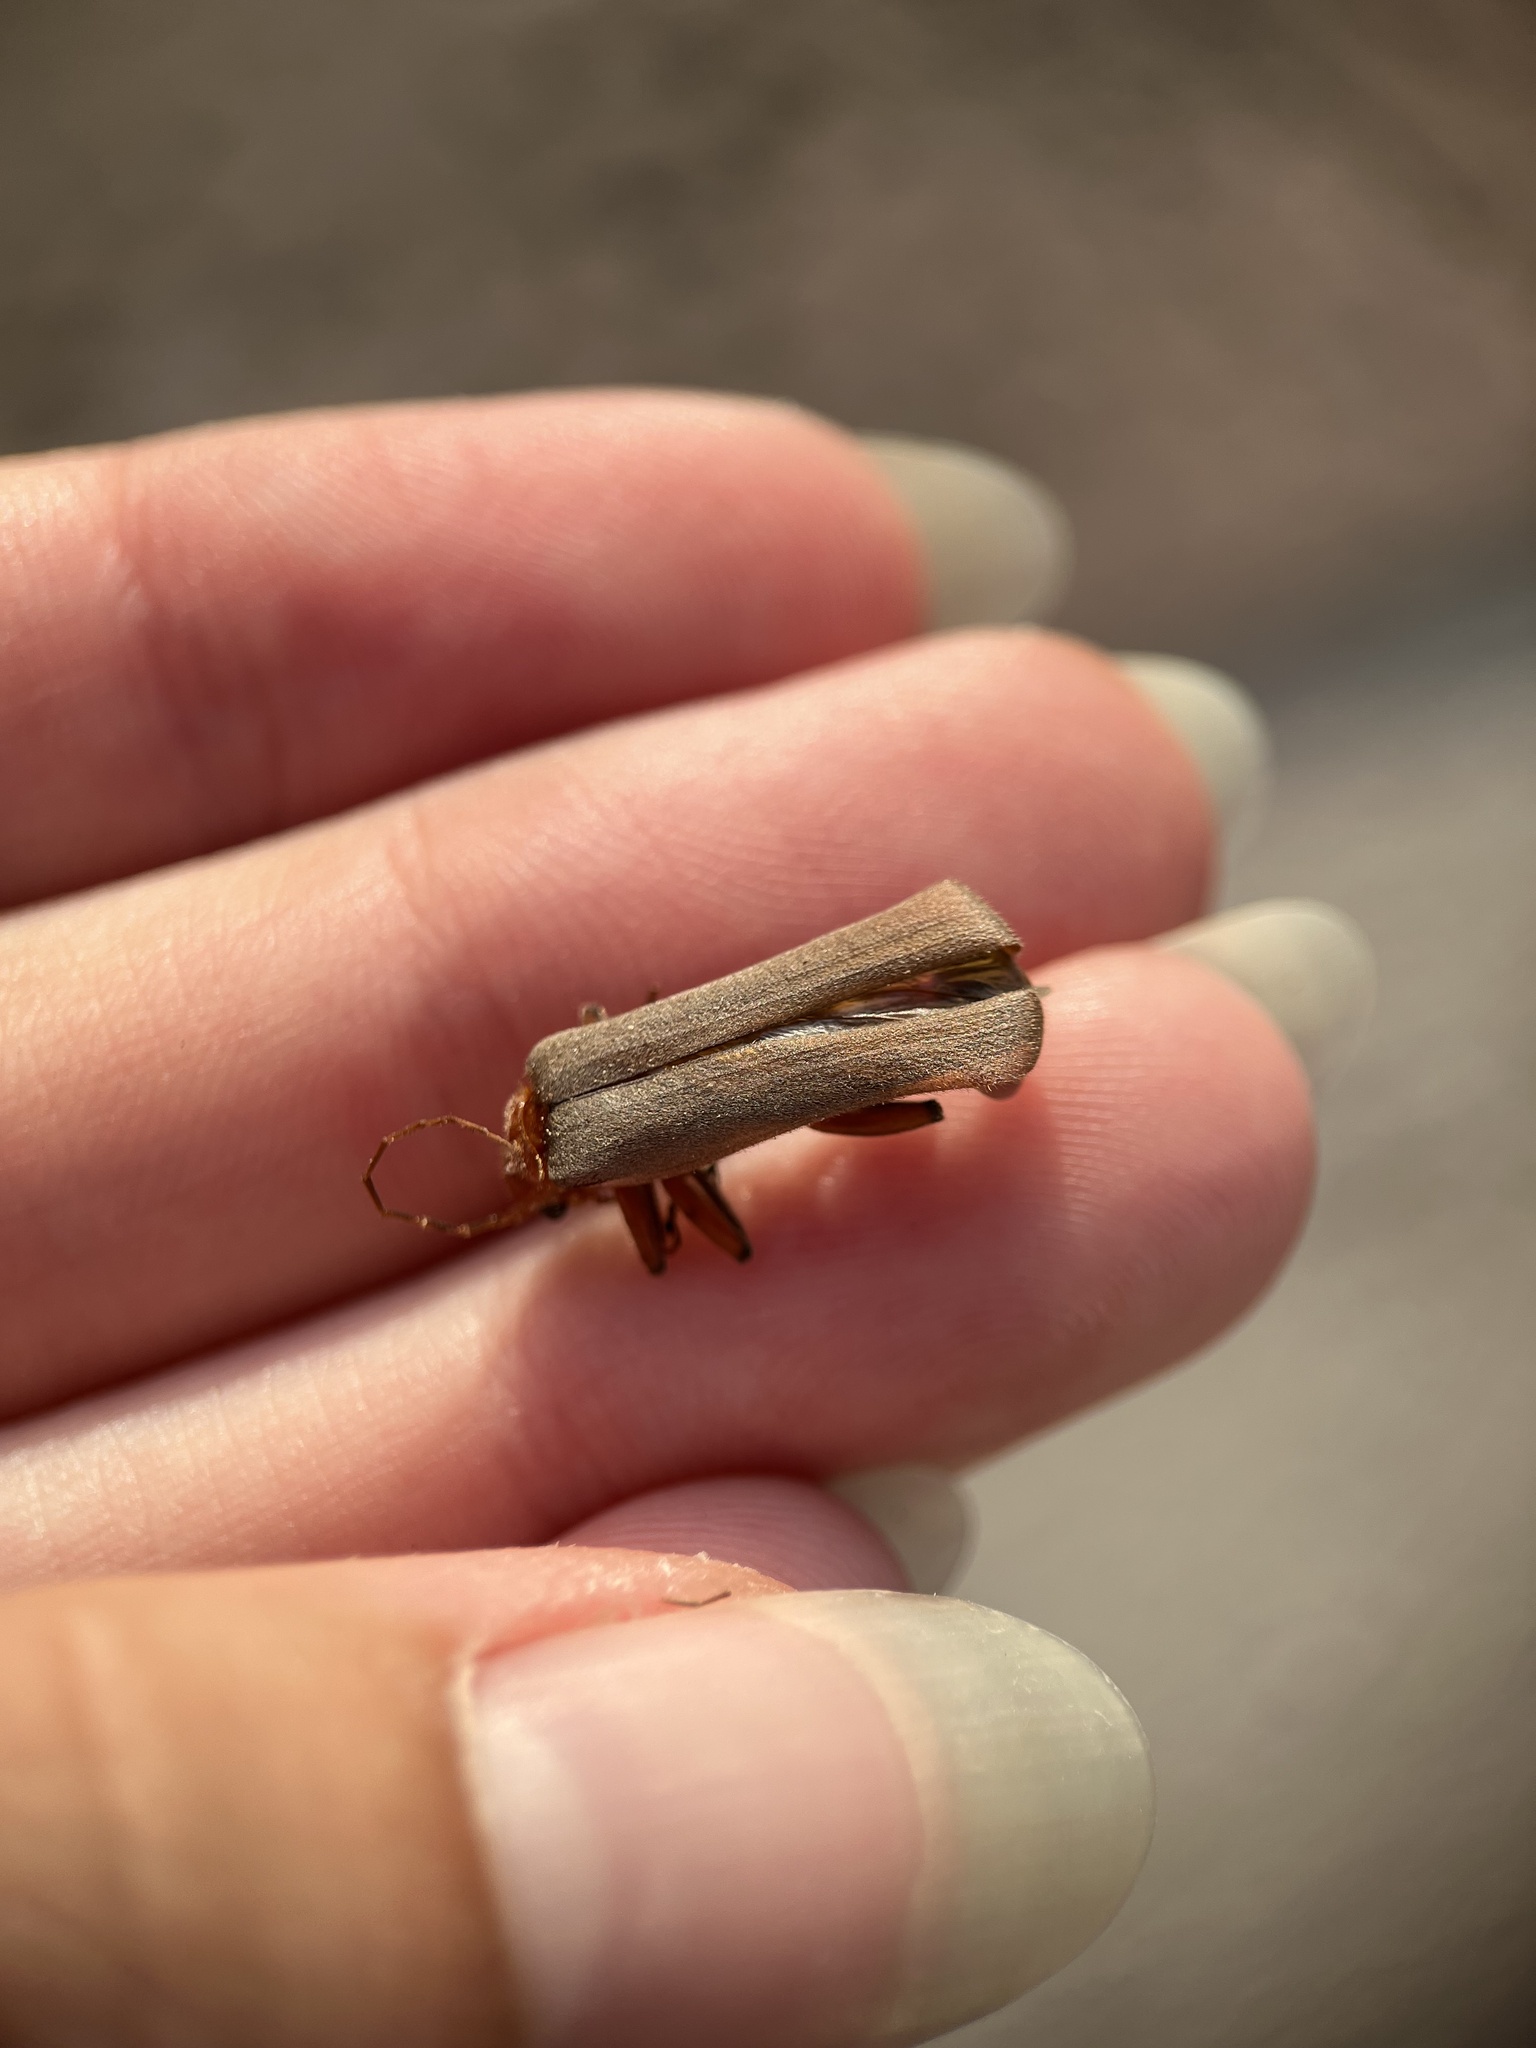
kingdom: Animalia
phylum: Arthropoda
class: Insecta
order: Coleoptera
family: Cantharidae
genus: Pacificanthia
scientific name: Pacificanthia consors
